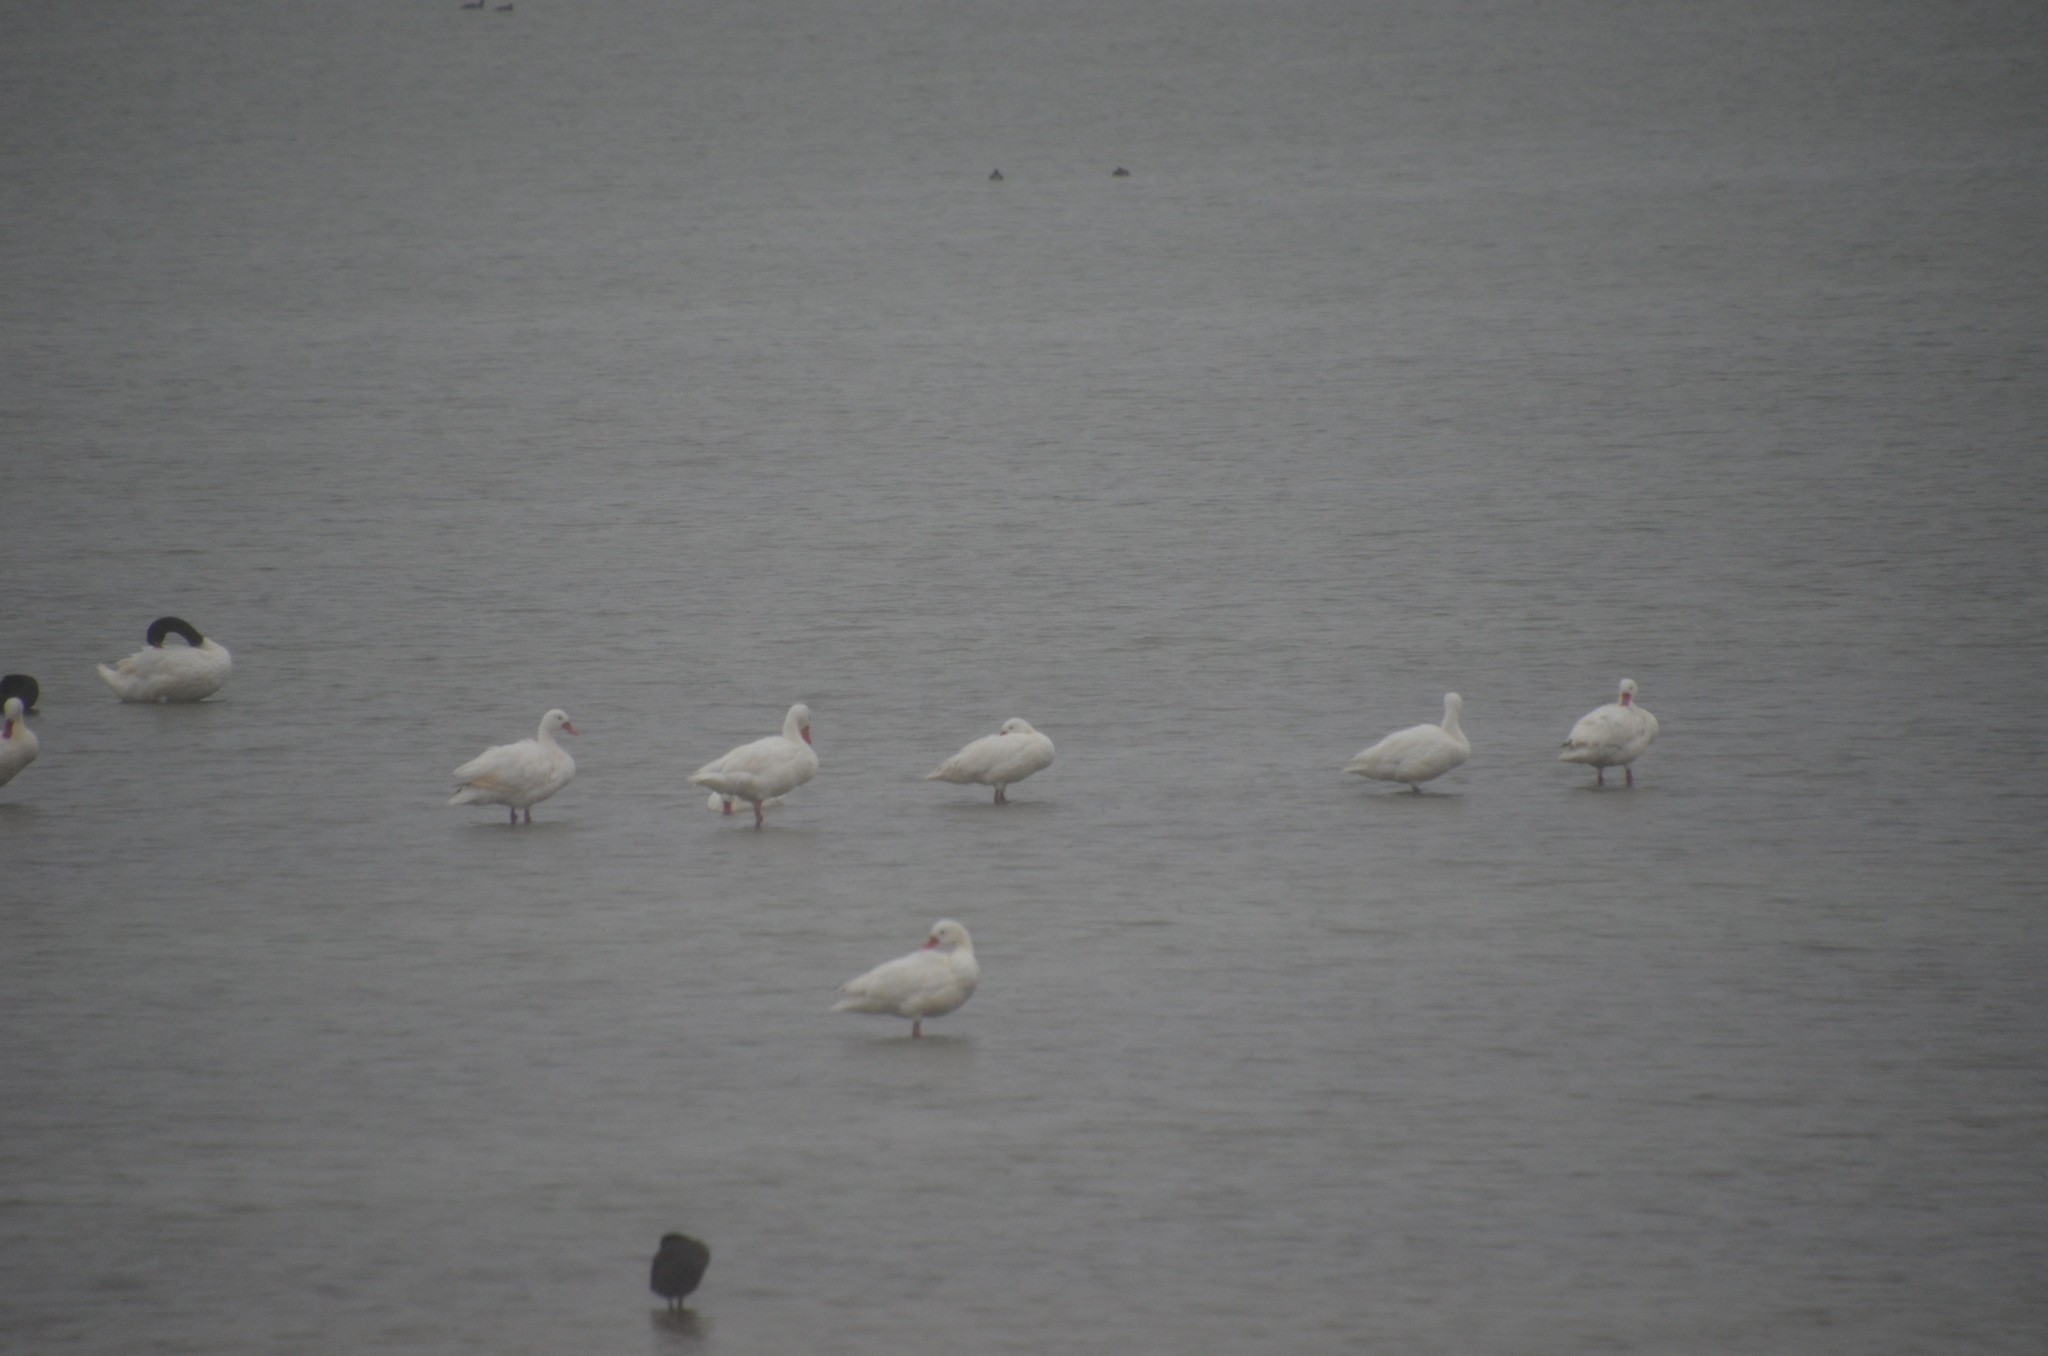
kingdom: Animalia
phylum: Chordata
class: Aves
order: Anseriformes
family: Anatidae
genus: Cygnus
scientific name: Cygnus melancoryphus
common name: Black-necked swan
